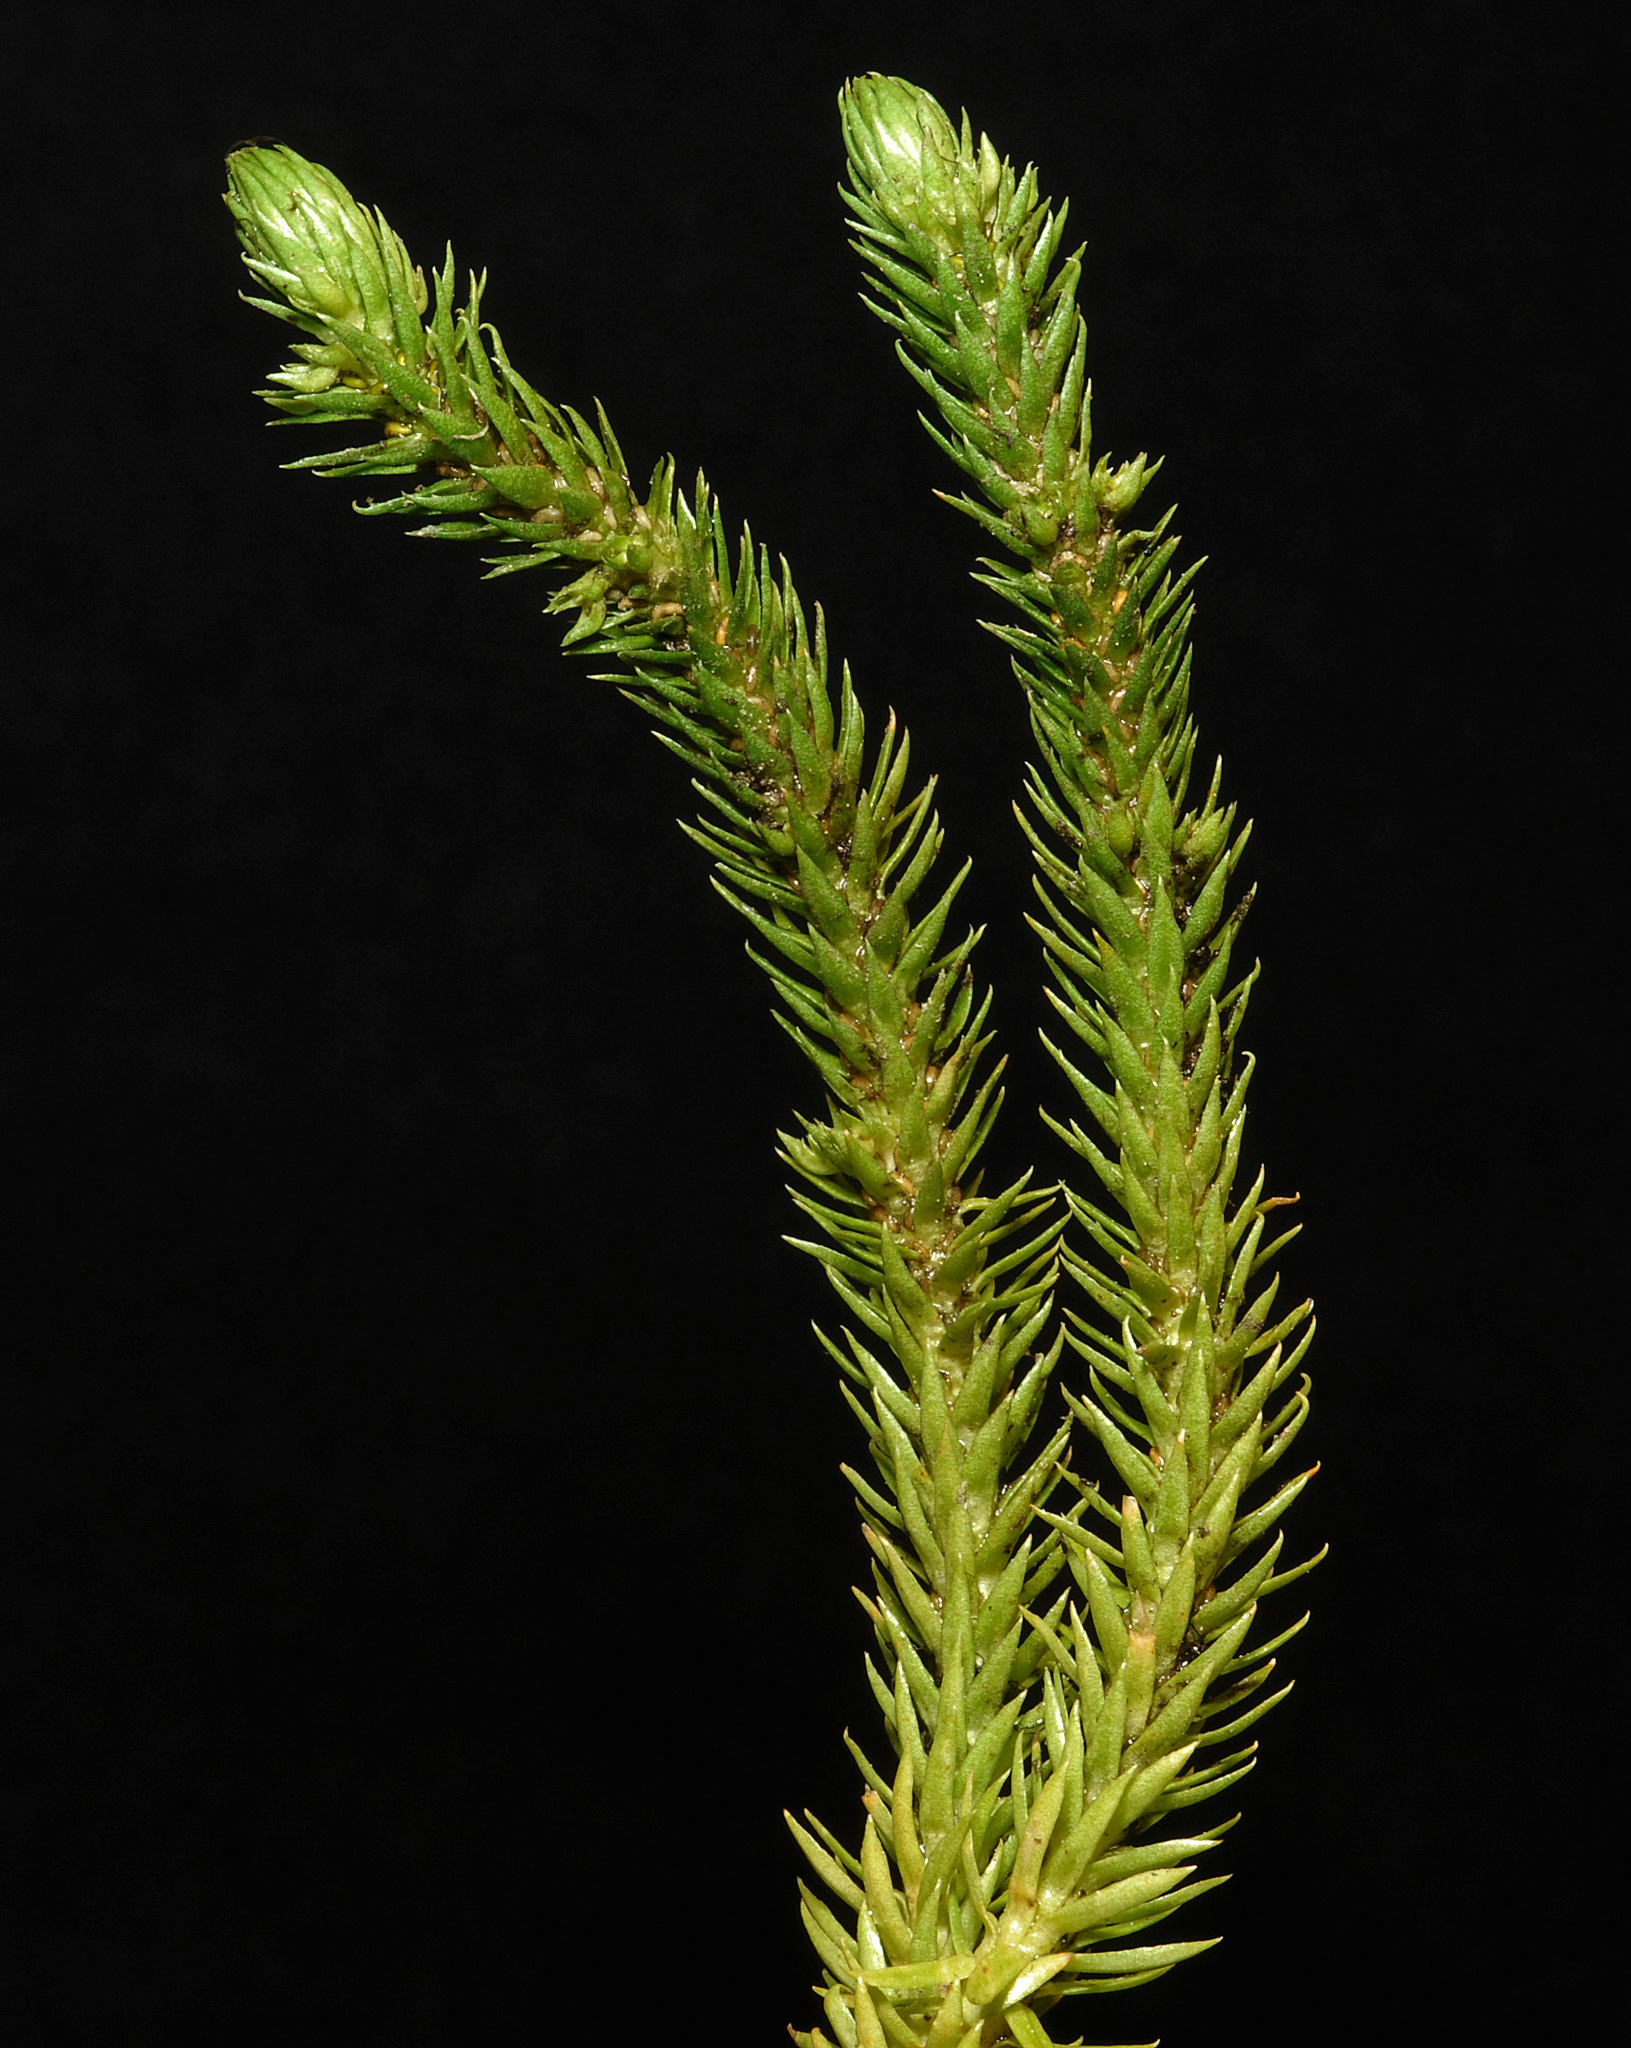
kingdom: Plantae
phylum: Tracheophyta
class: Lycopodiopsida
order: Lycopodiales
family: Lycopodiaceae
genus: Huperzia
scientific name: Huperzia selago
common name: Northern firmoss
